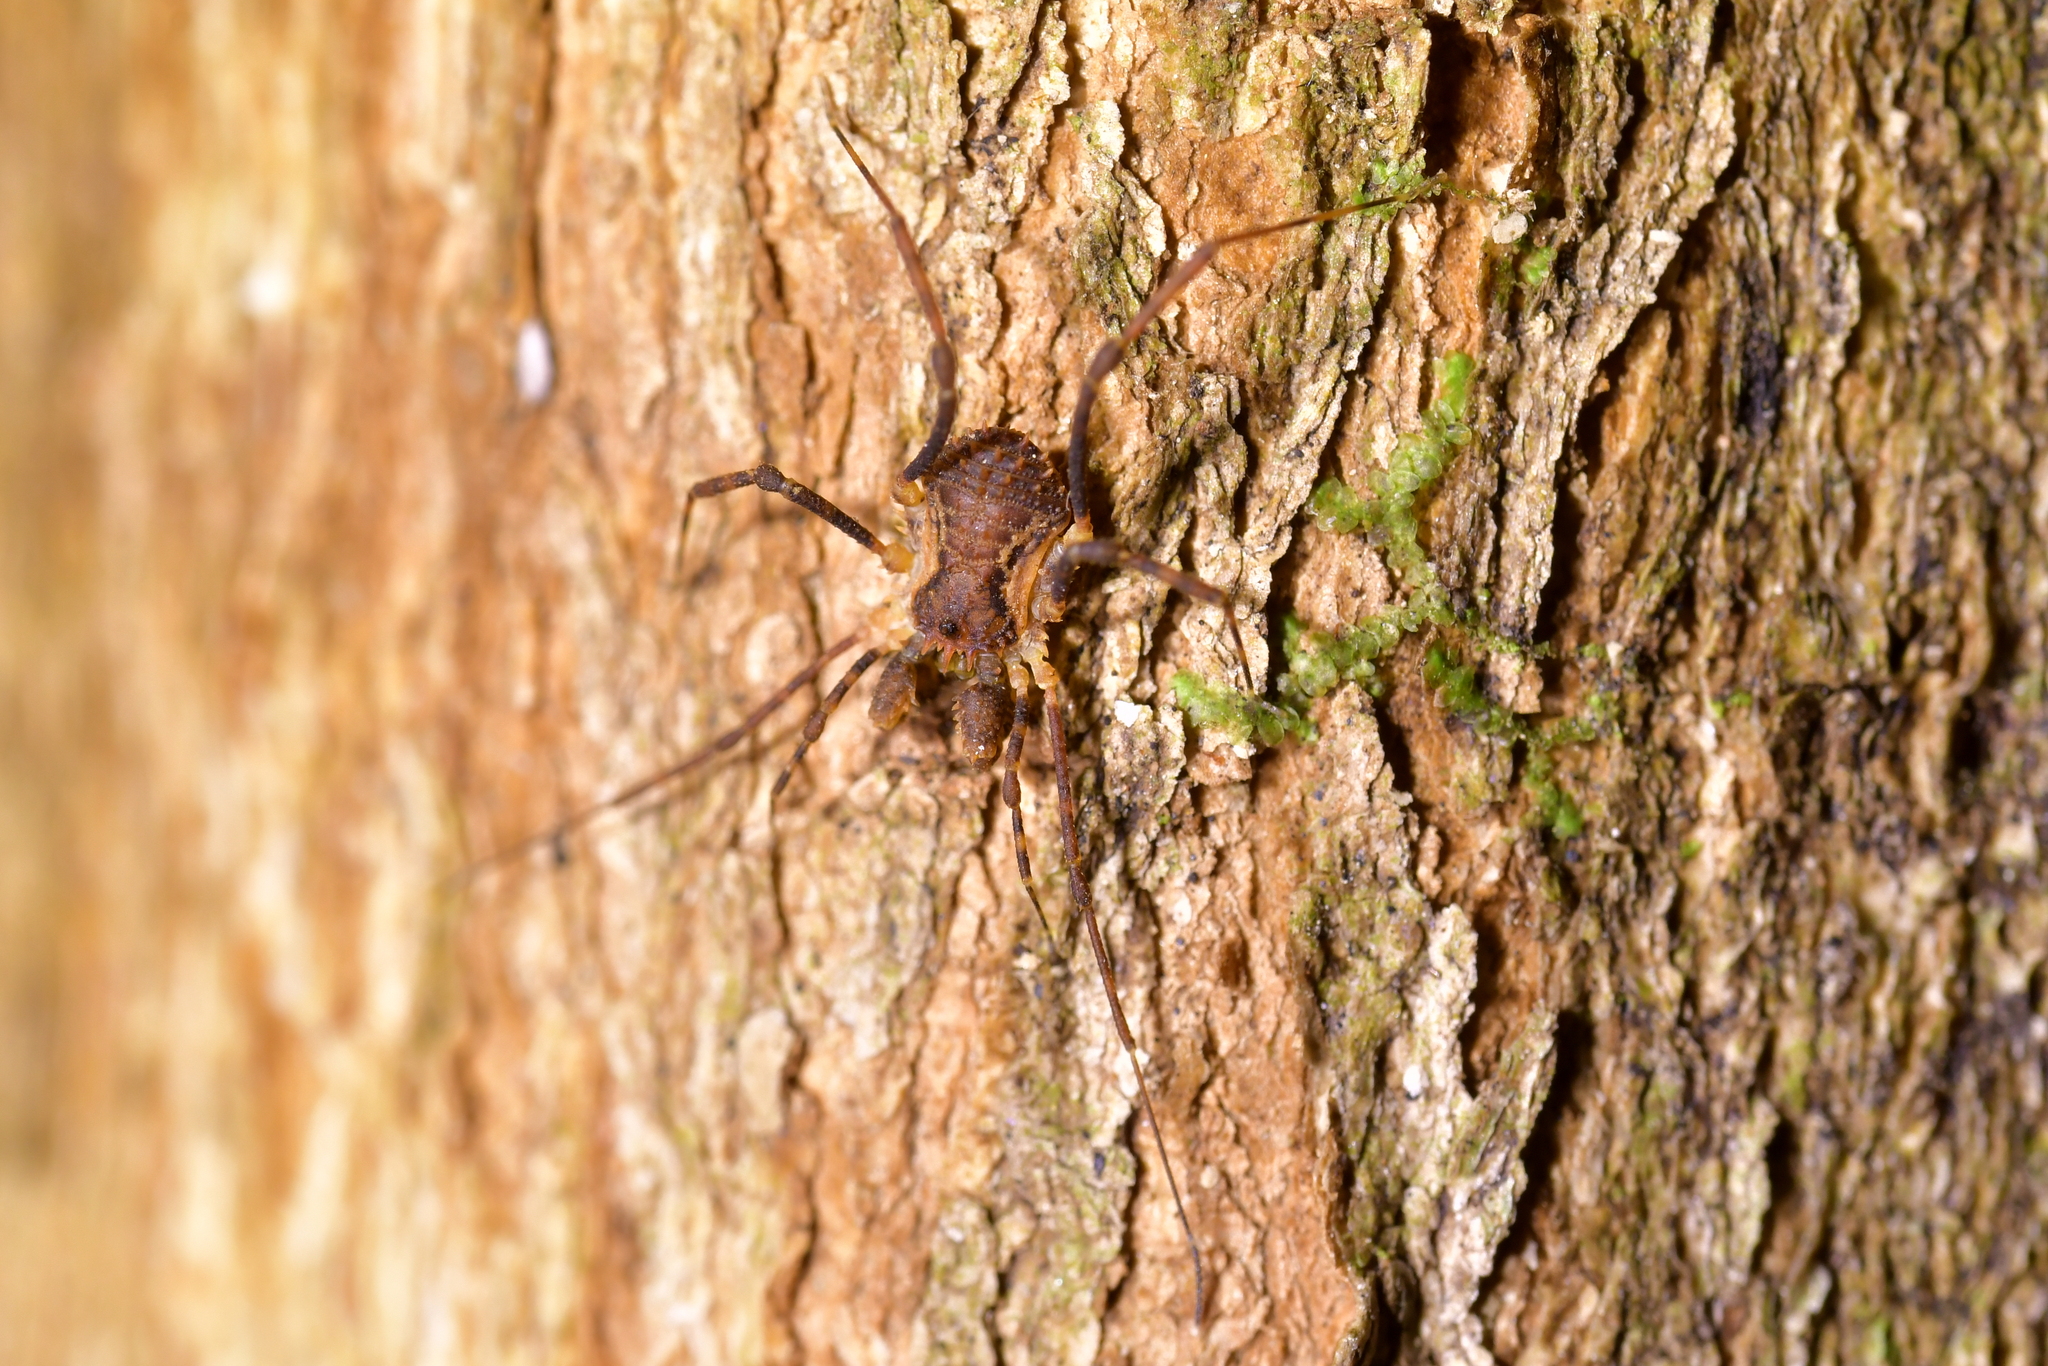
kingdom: Animalia
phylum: Arthropoda
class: Arachnida
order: Opiliones
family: Triaenonychidae
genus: Algidia
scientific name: Algidia nigriflava
